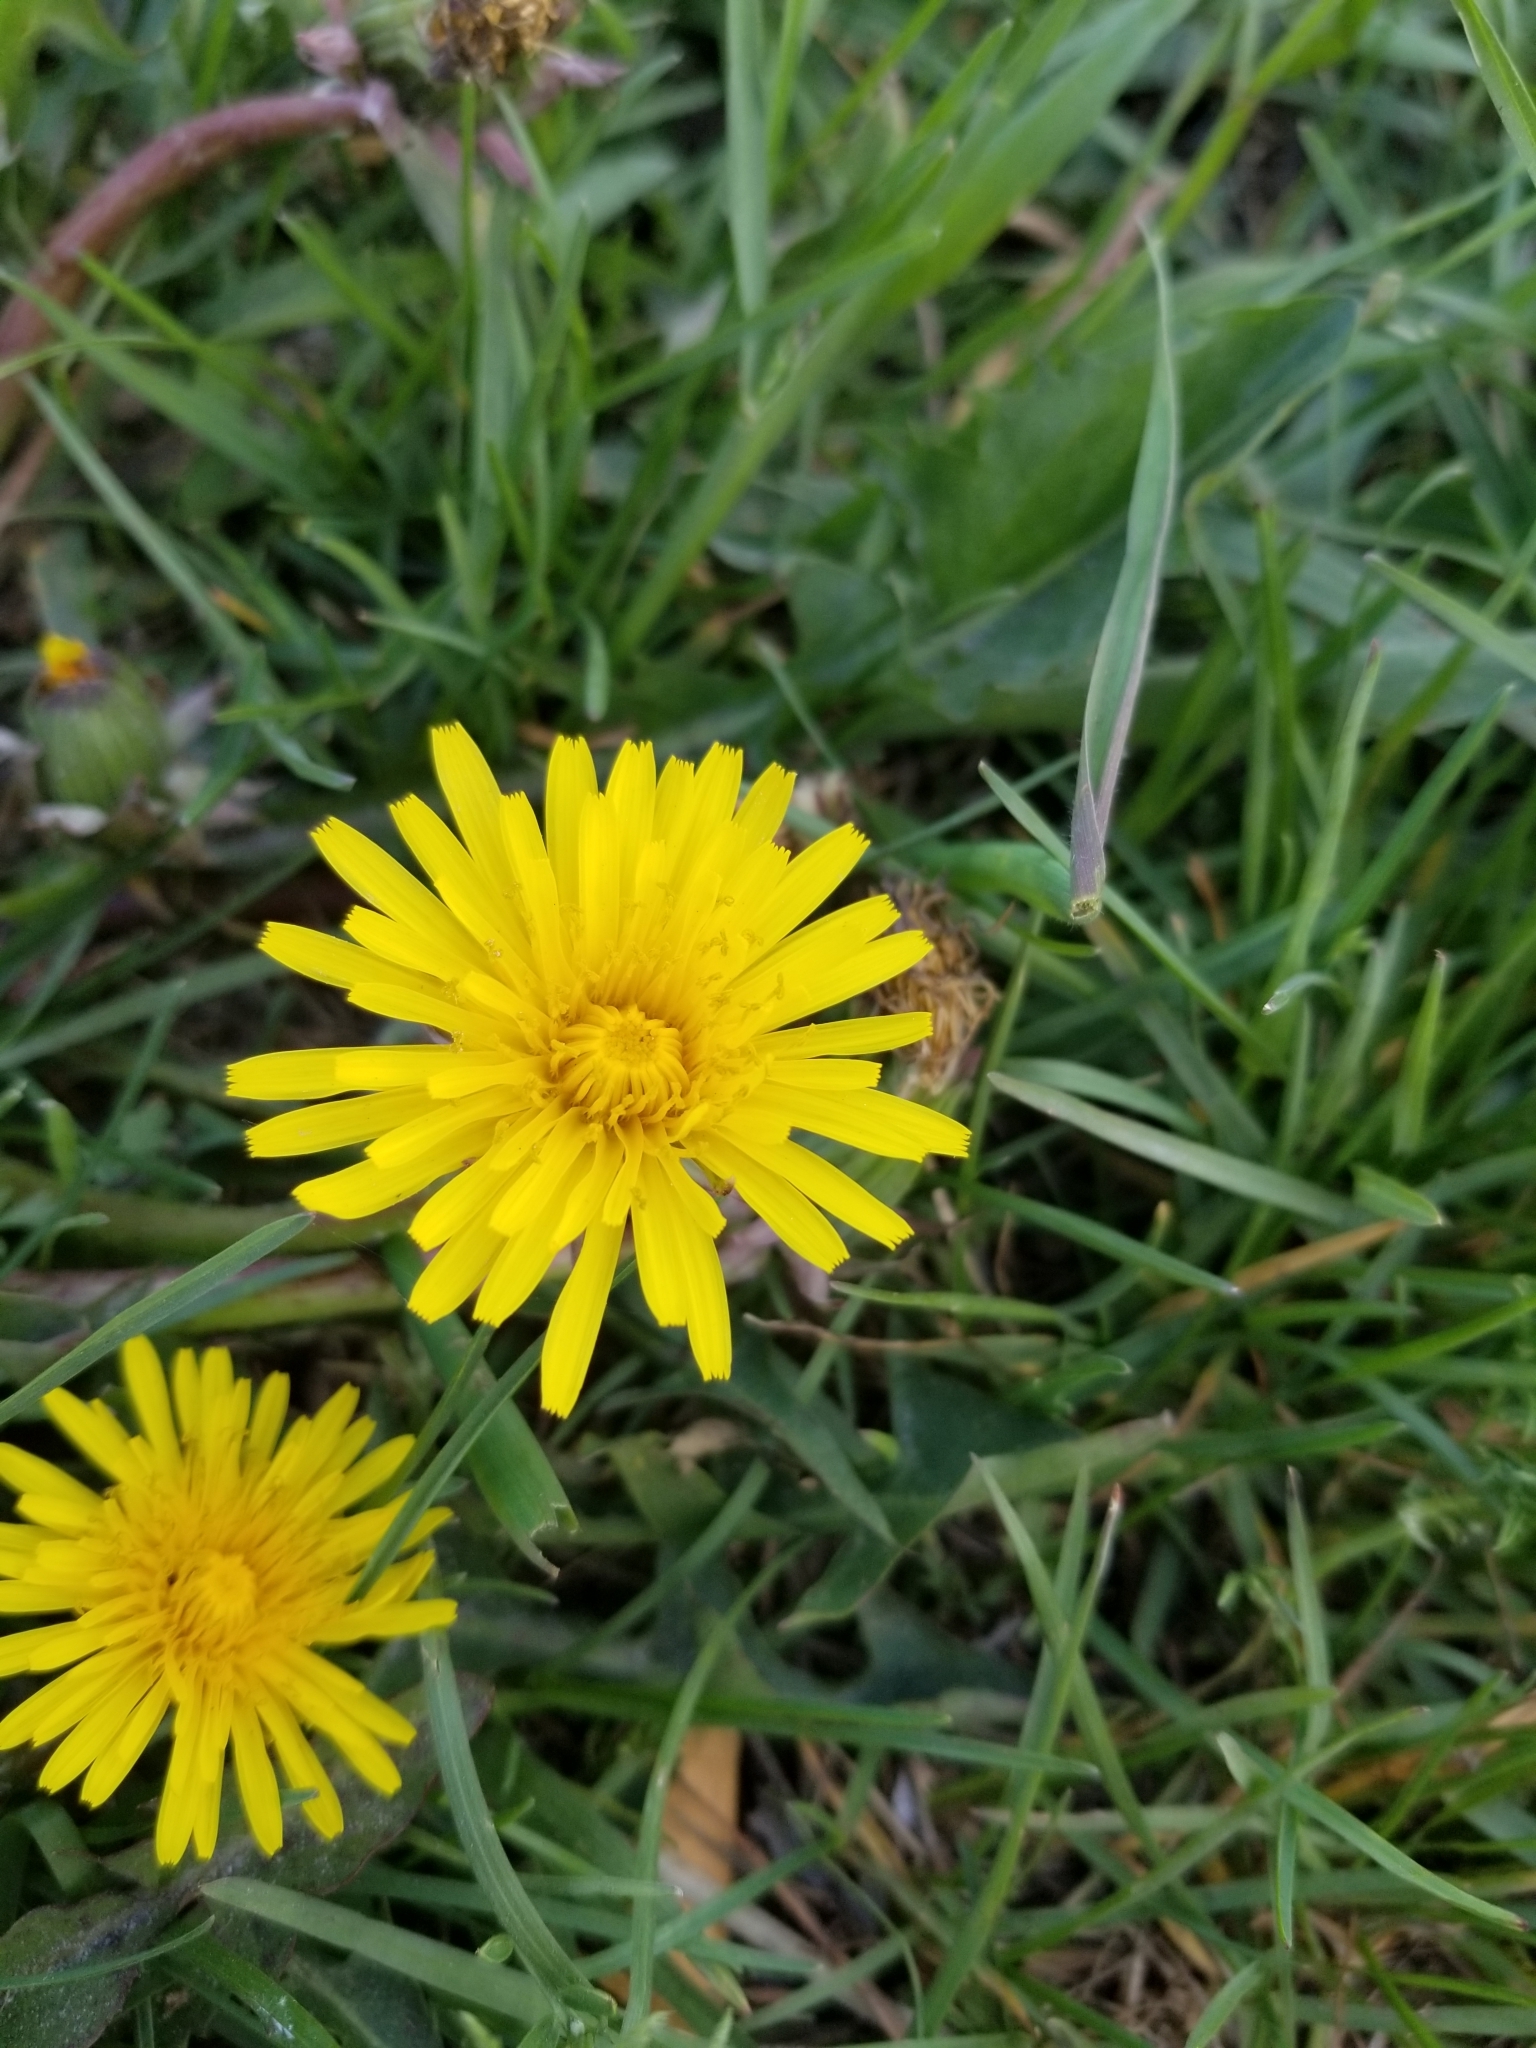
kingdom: Plantae
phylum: Tracheophyta
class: Magnoliopsida
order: Asterales
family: Asteraceae
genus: Taraxacum
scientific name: Taraxacum officinale
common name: Common dandelion
